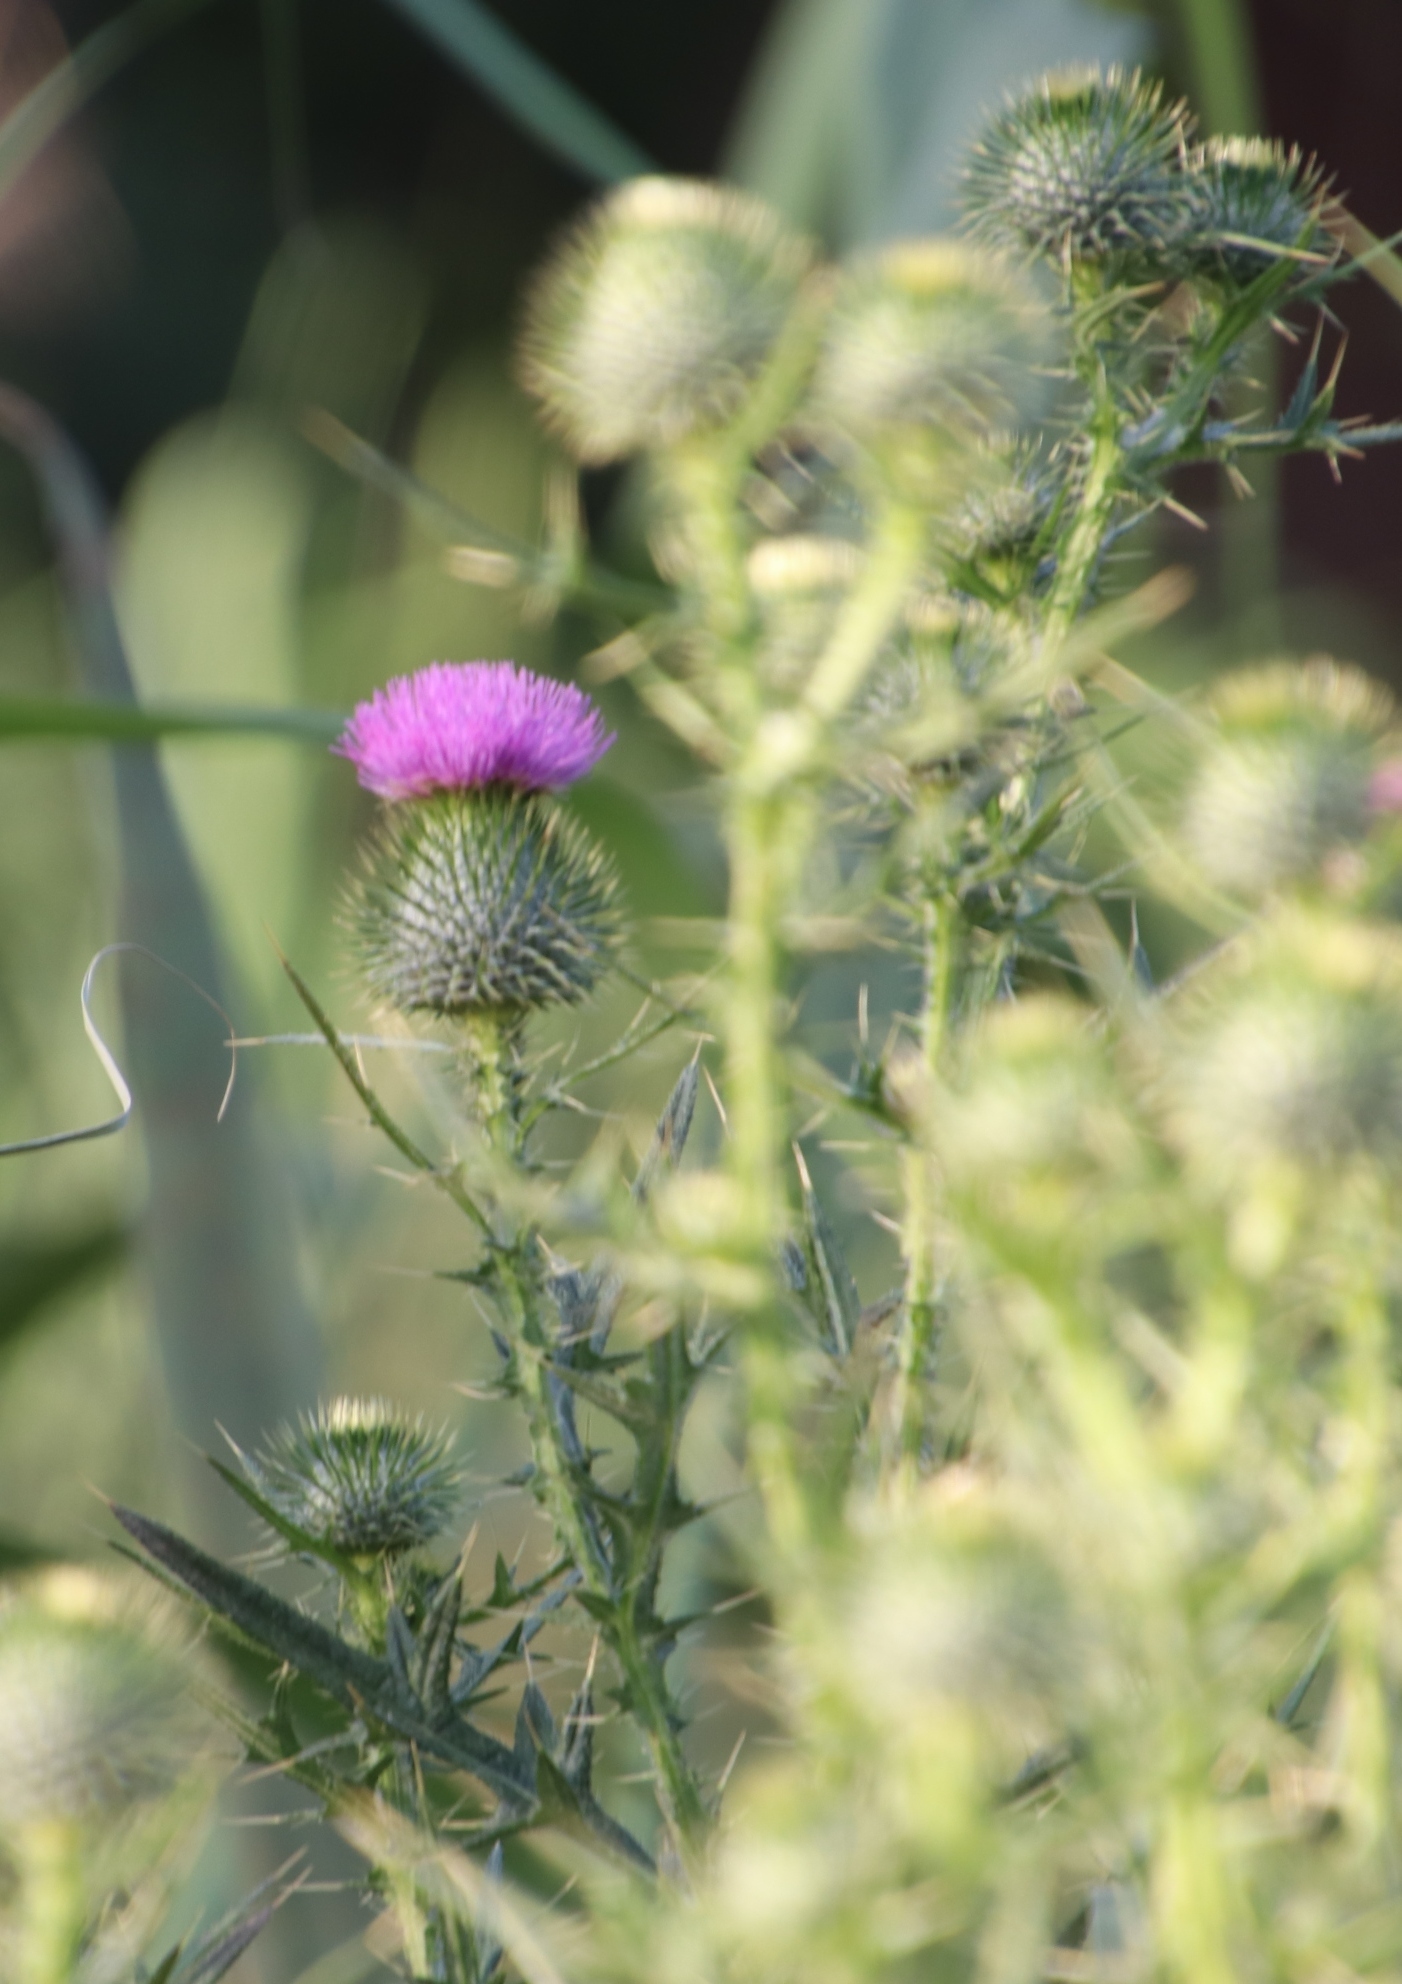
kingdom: Plantae
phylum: Tracheophyta
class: Magnoliopsida
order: Asterales
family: Asteraceae
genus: Cirsium
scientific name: Cirsium vulgare
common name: Bull thistle
